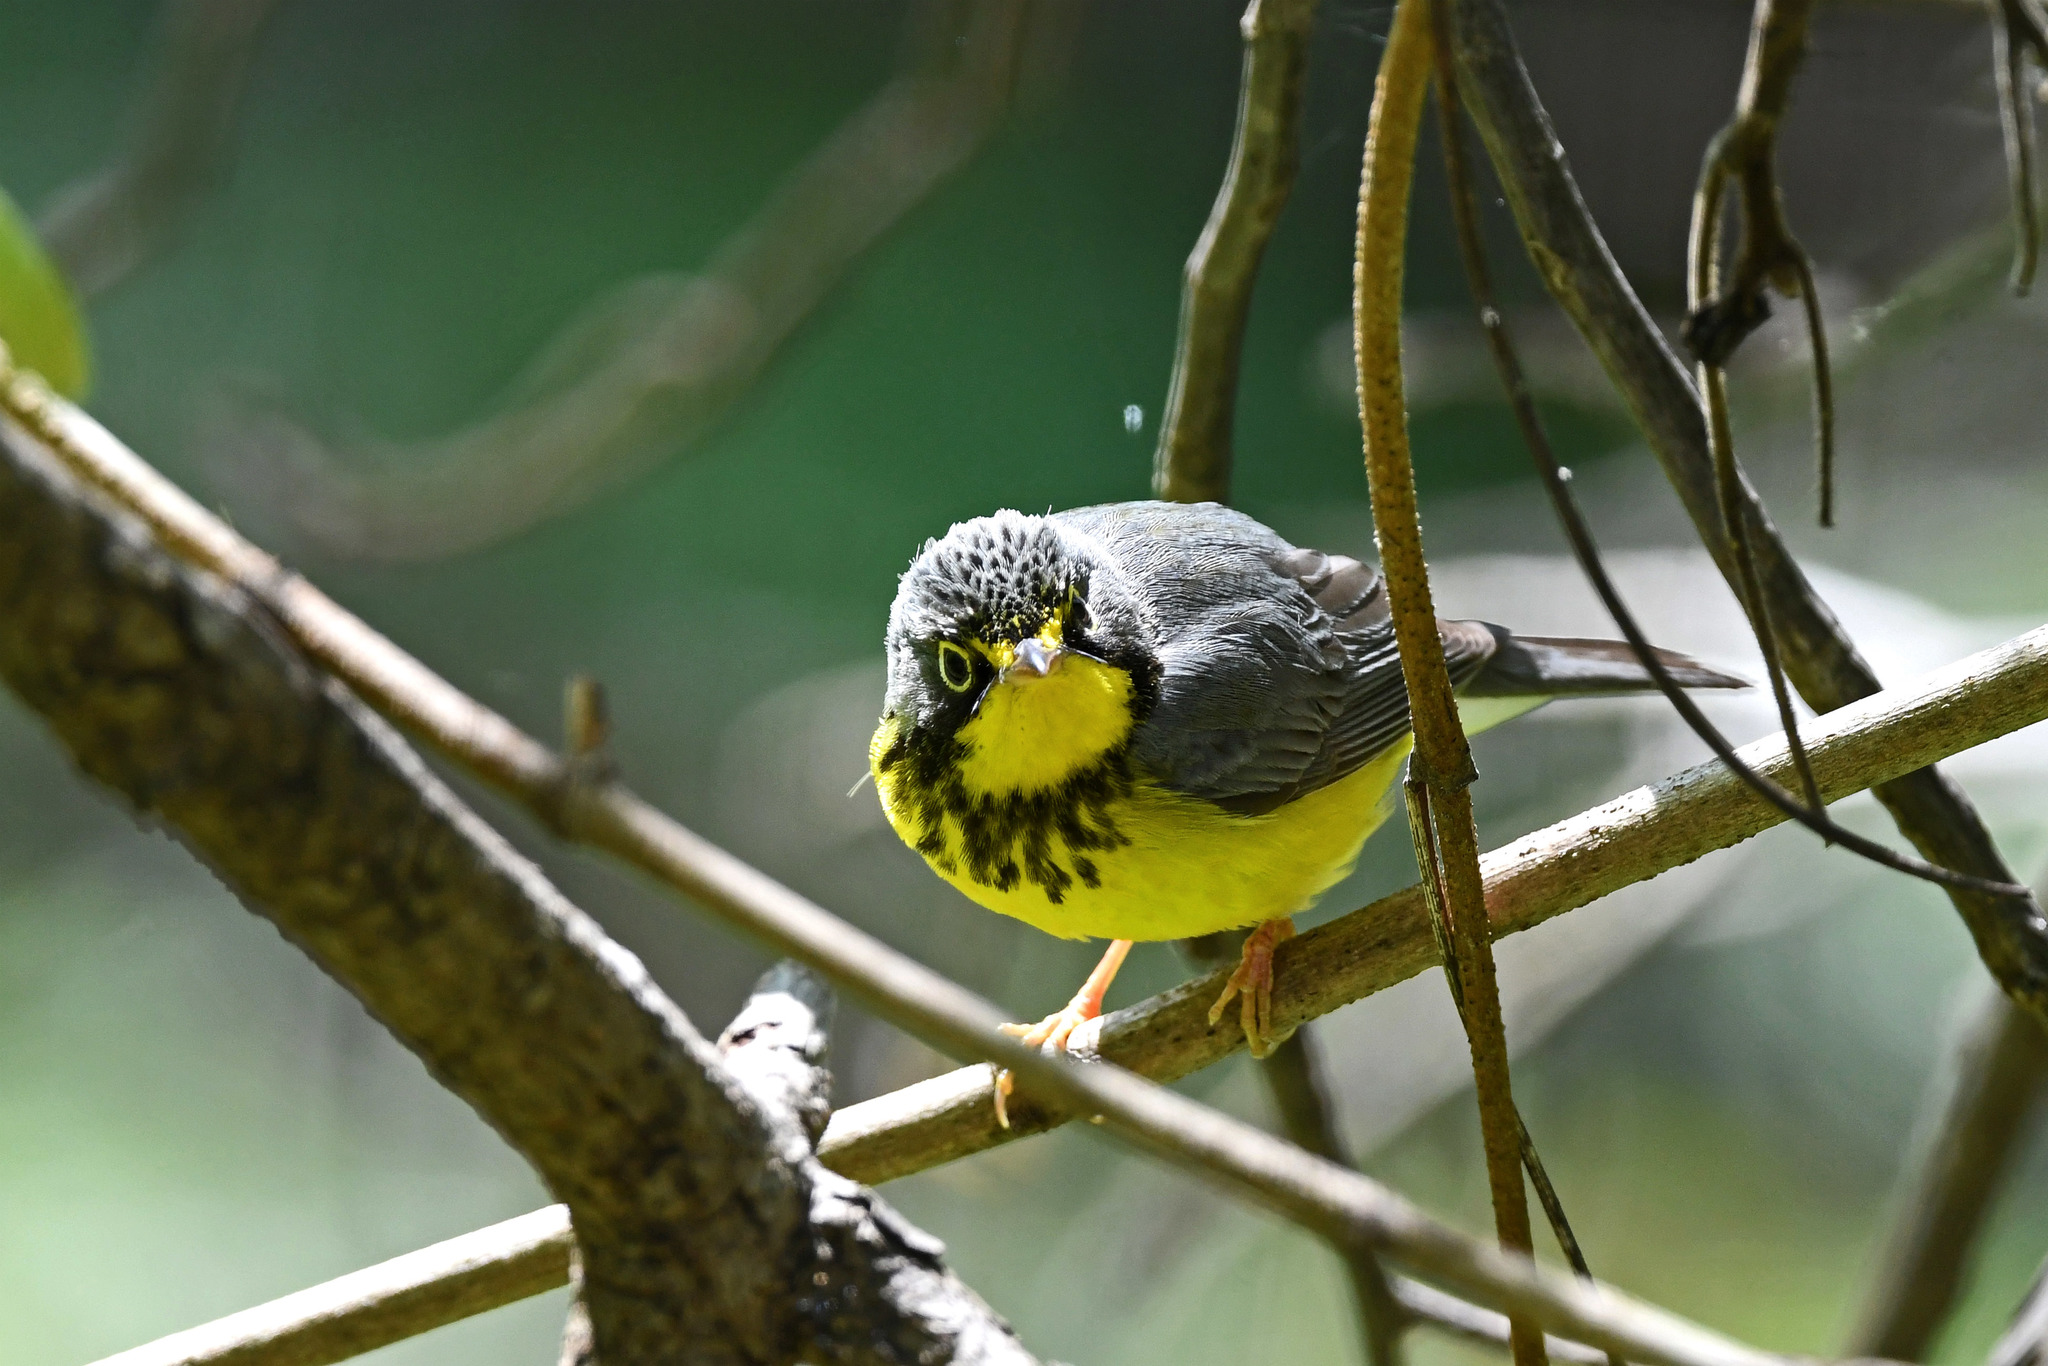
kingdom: Animalia
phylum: Chordata
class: Aves
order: Passeriformes
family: Parulidae
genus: Cardellina
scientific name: Cardellina canadensis
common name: Canada warbler
